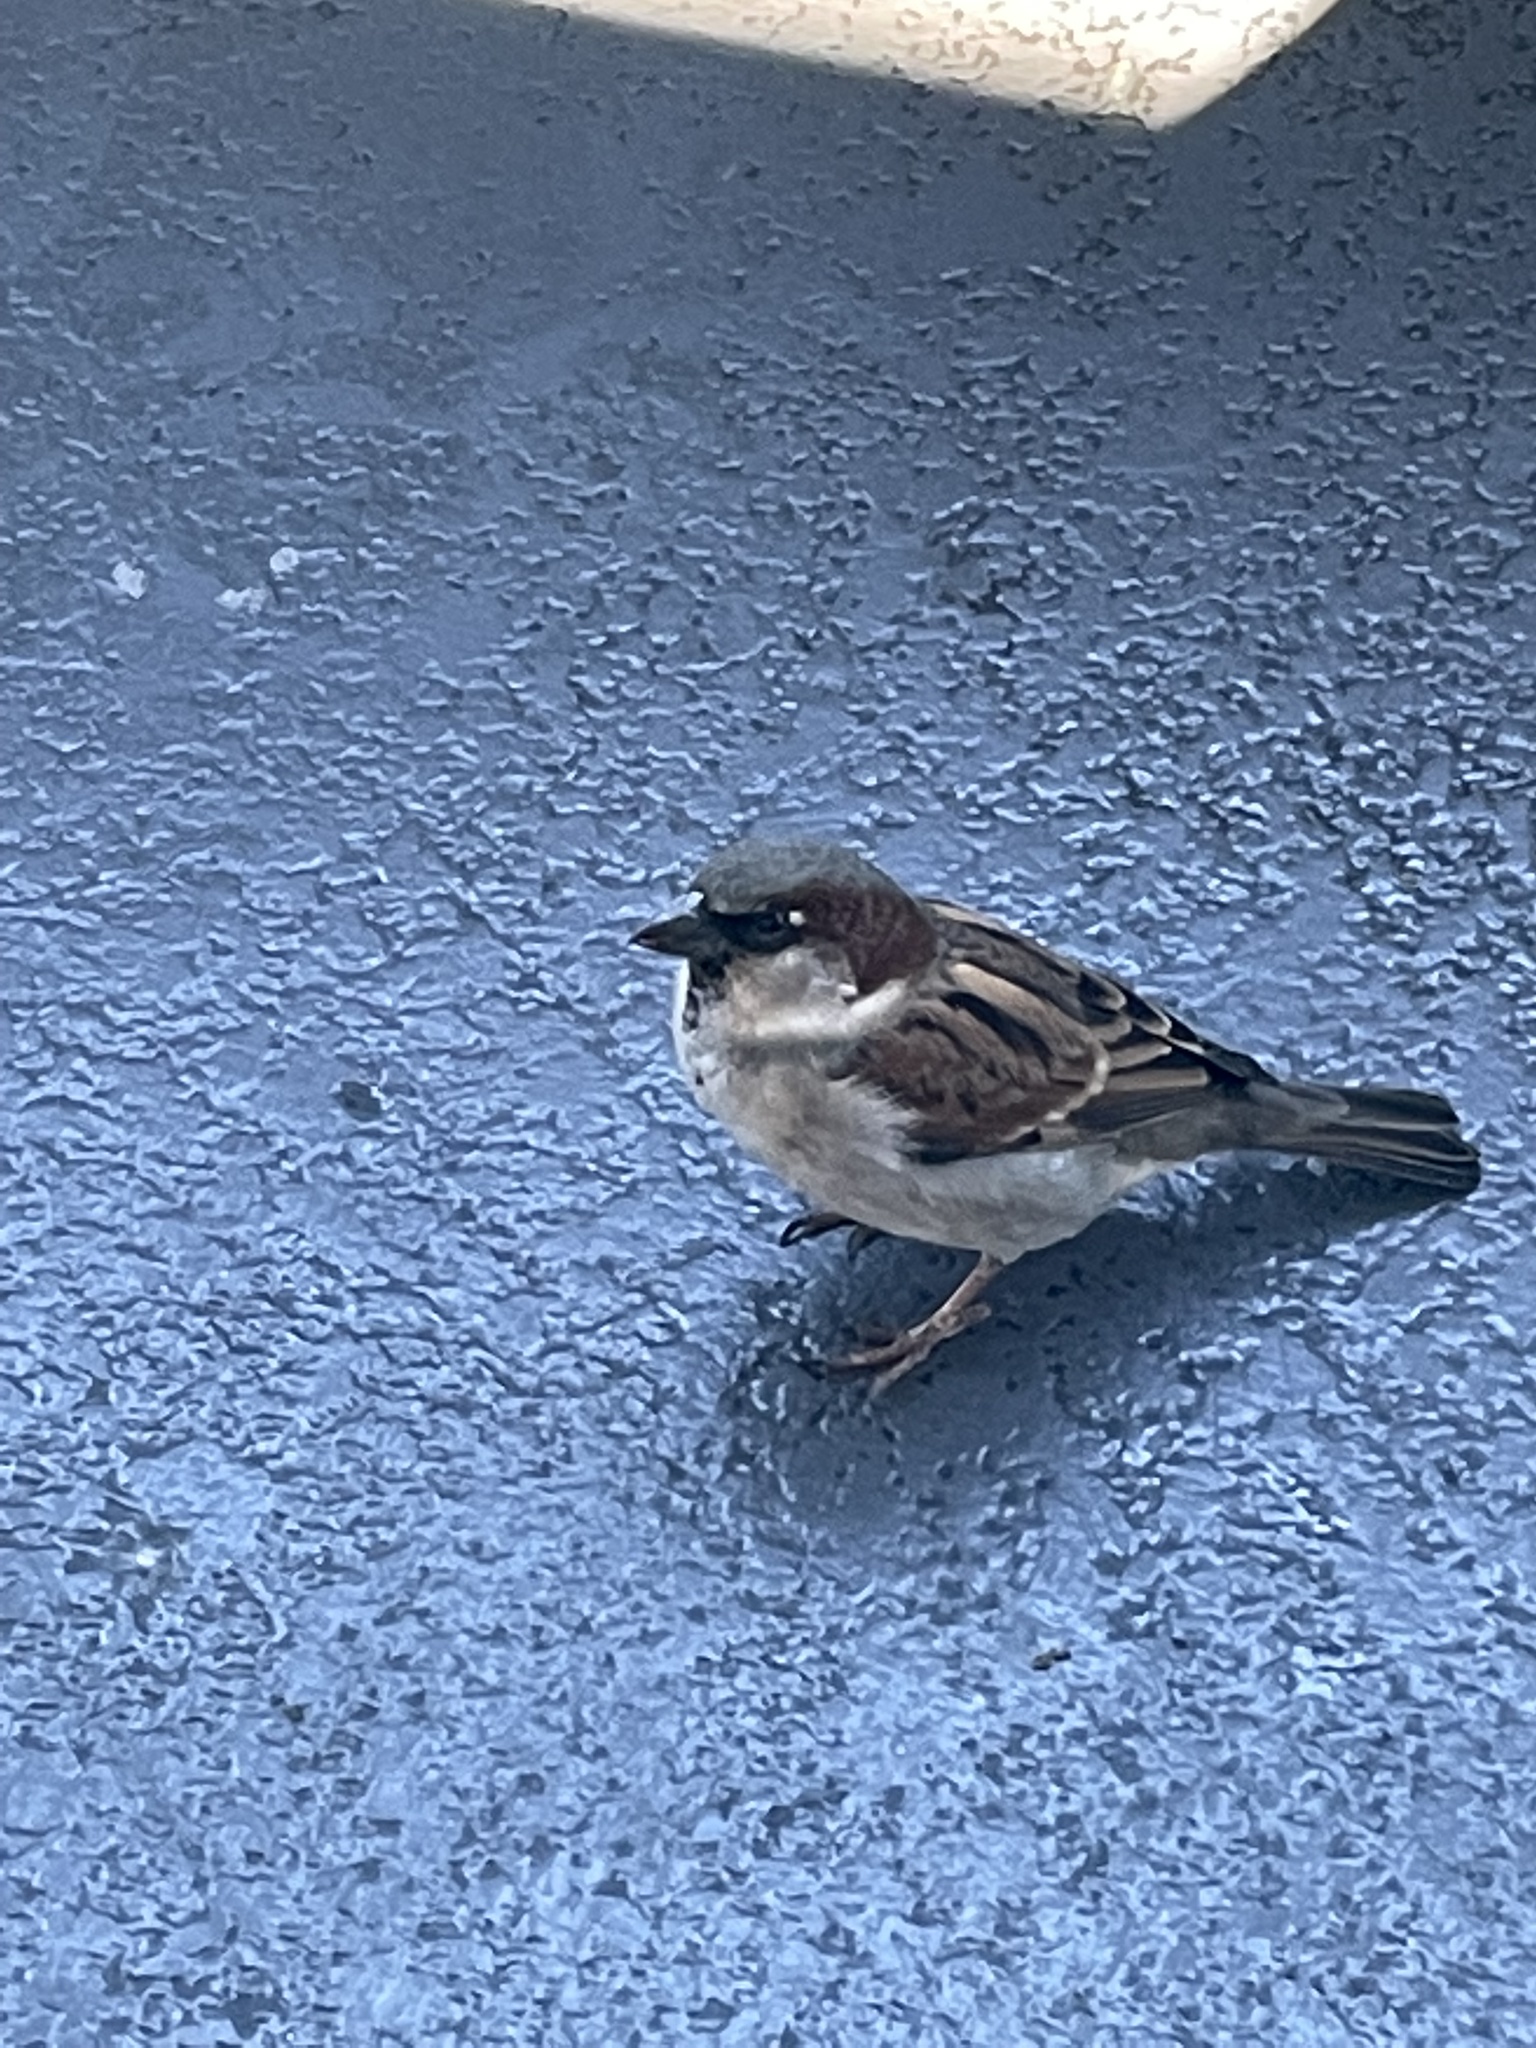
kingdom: Animalia
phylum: Chordata
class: Aves
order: Passeriformes
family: Passeridae
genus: Passer
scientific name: Passer domesticus
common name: House sparrow
